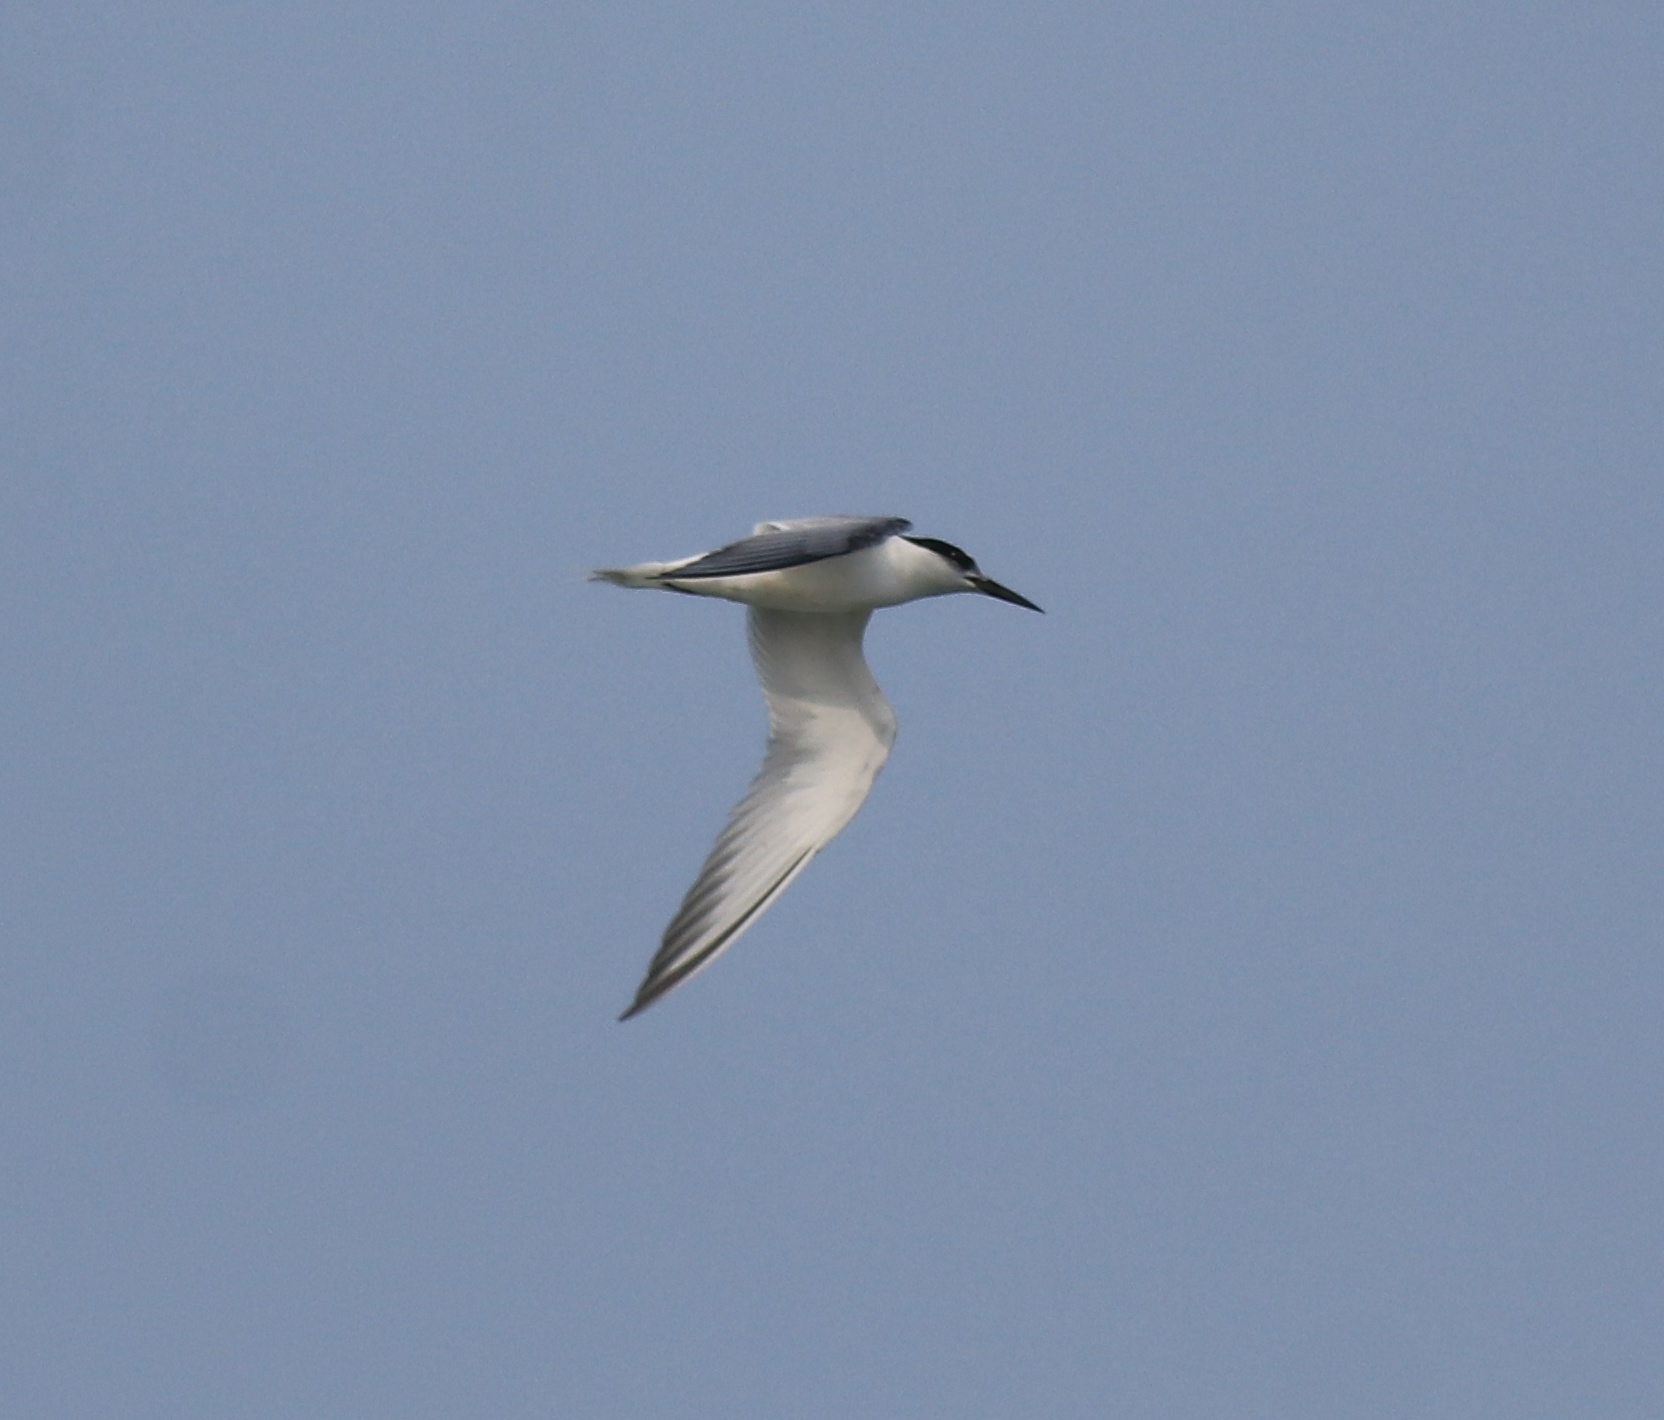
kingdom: Animalia
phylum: Chordata
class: Aves
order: Charadriiformes
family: Laridae
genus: Sternula
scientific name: Sternula albifrons
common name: Little tern
